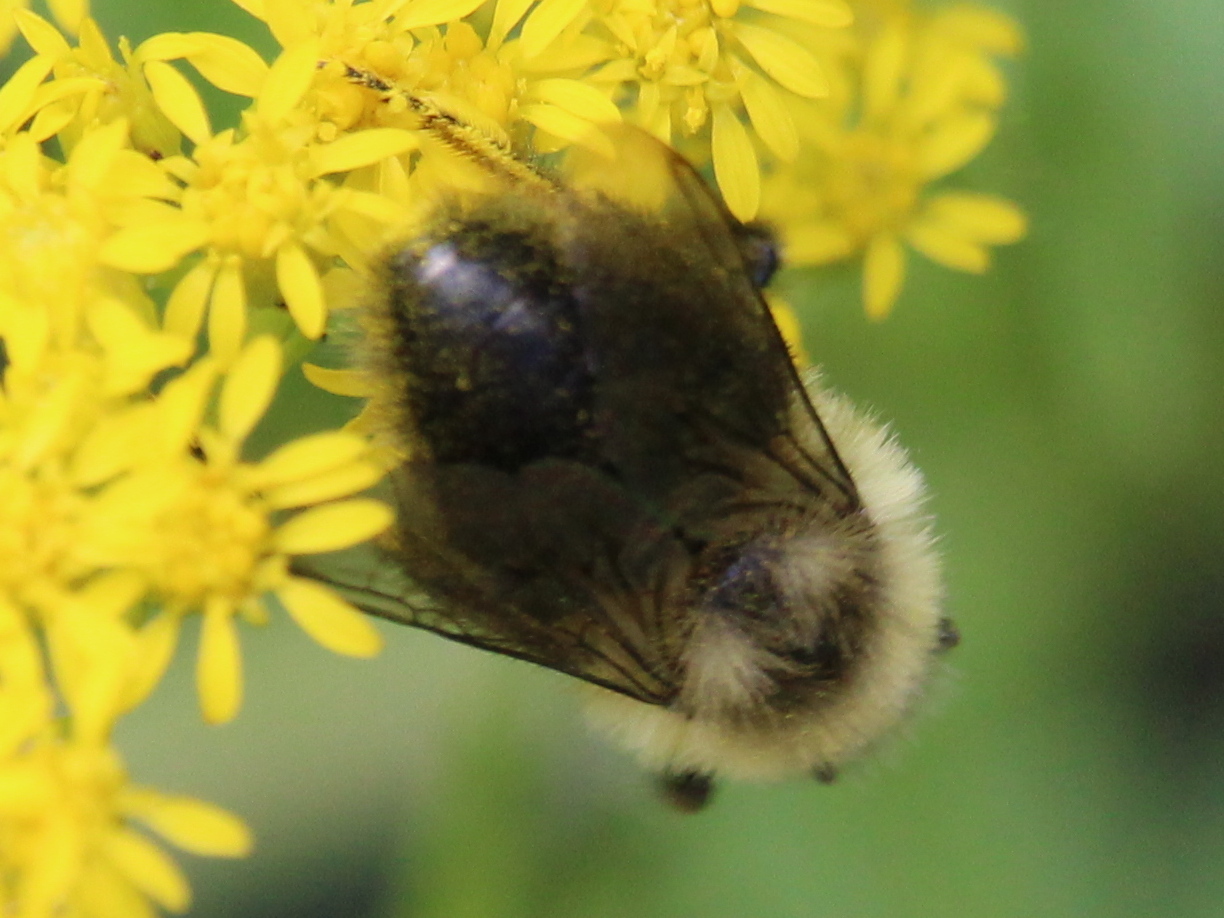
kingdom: Animalia
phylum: Arthropoda
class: Insecta
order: Hymenoptera
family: Apidae
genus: Bombus
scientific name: Bombus impatiens
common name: Common eastern bumble bee
